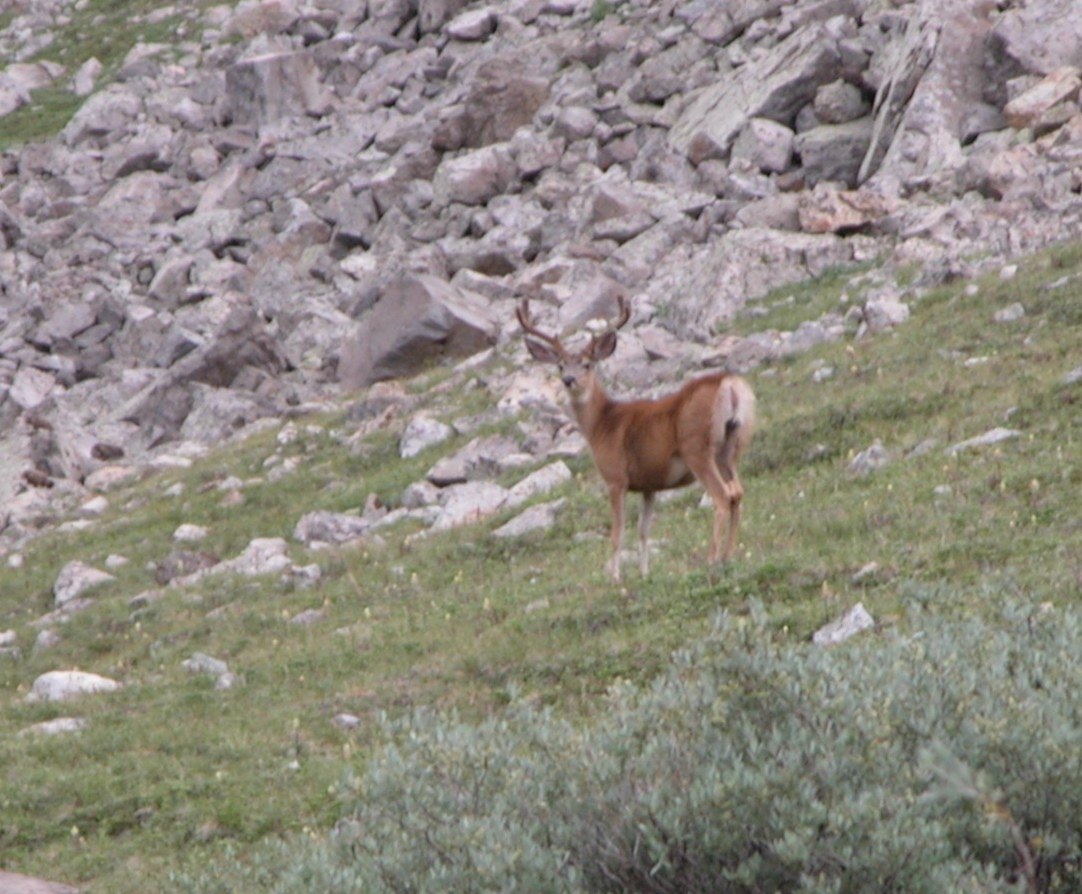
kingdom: Animalia
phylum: Chordata
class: Mammalia
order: Artiodactyla
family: Cervidae
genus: Odocoileus
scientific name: Odocoileus hemionus
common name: Mule deer
